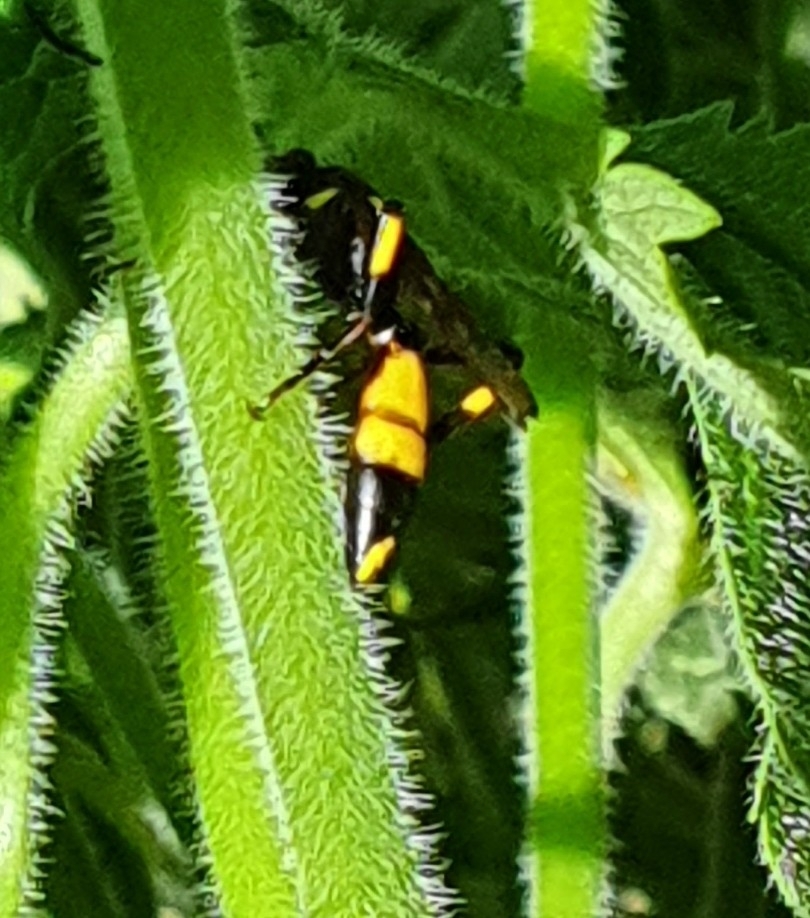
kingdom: Animalia
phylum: Arthropoda
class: Insecta
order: Hymenoptera
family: Ichneumonidae
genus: Ichneumon
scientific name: Ichneumon stramentor
